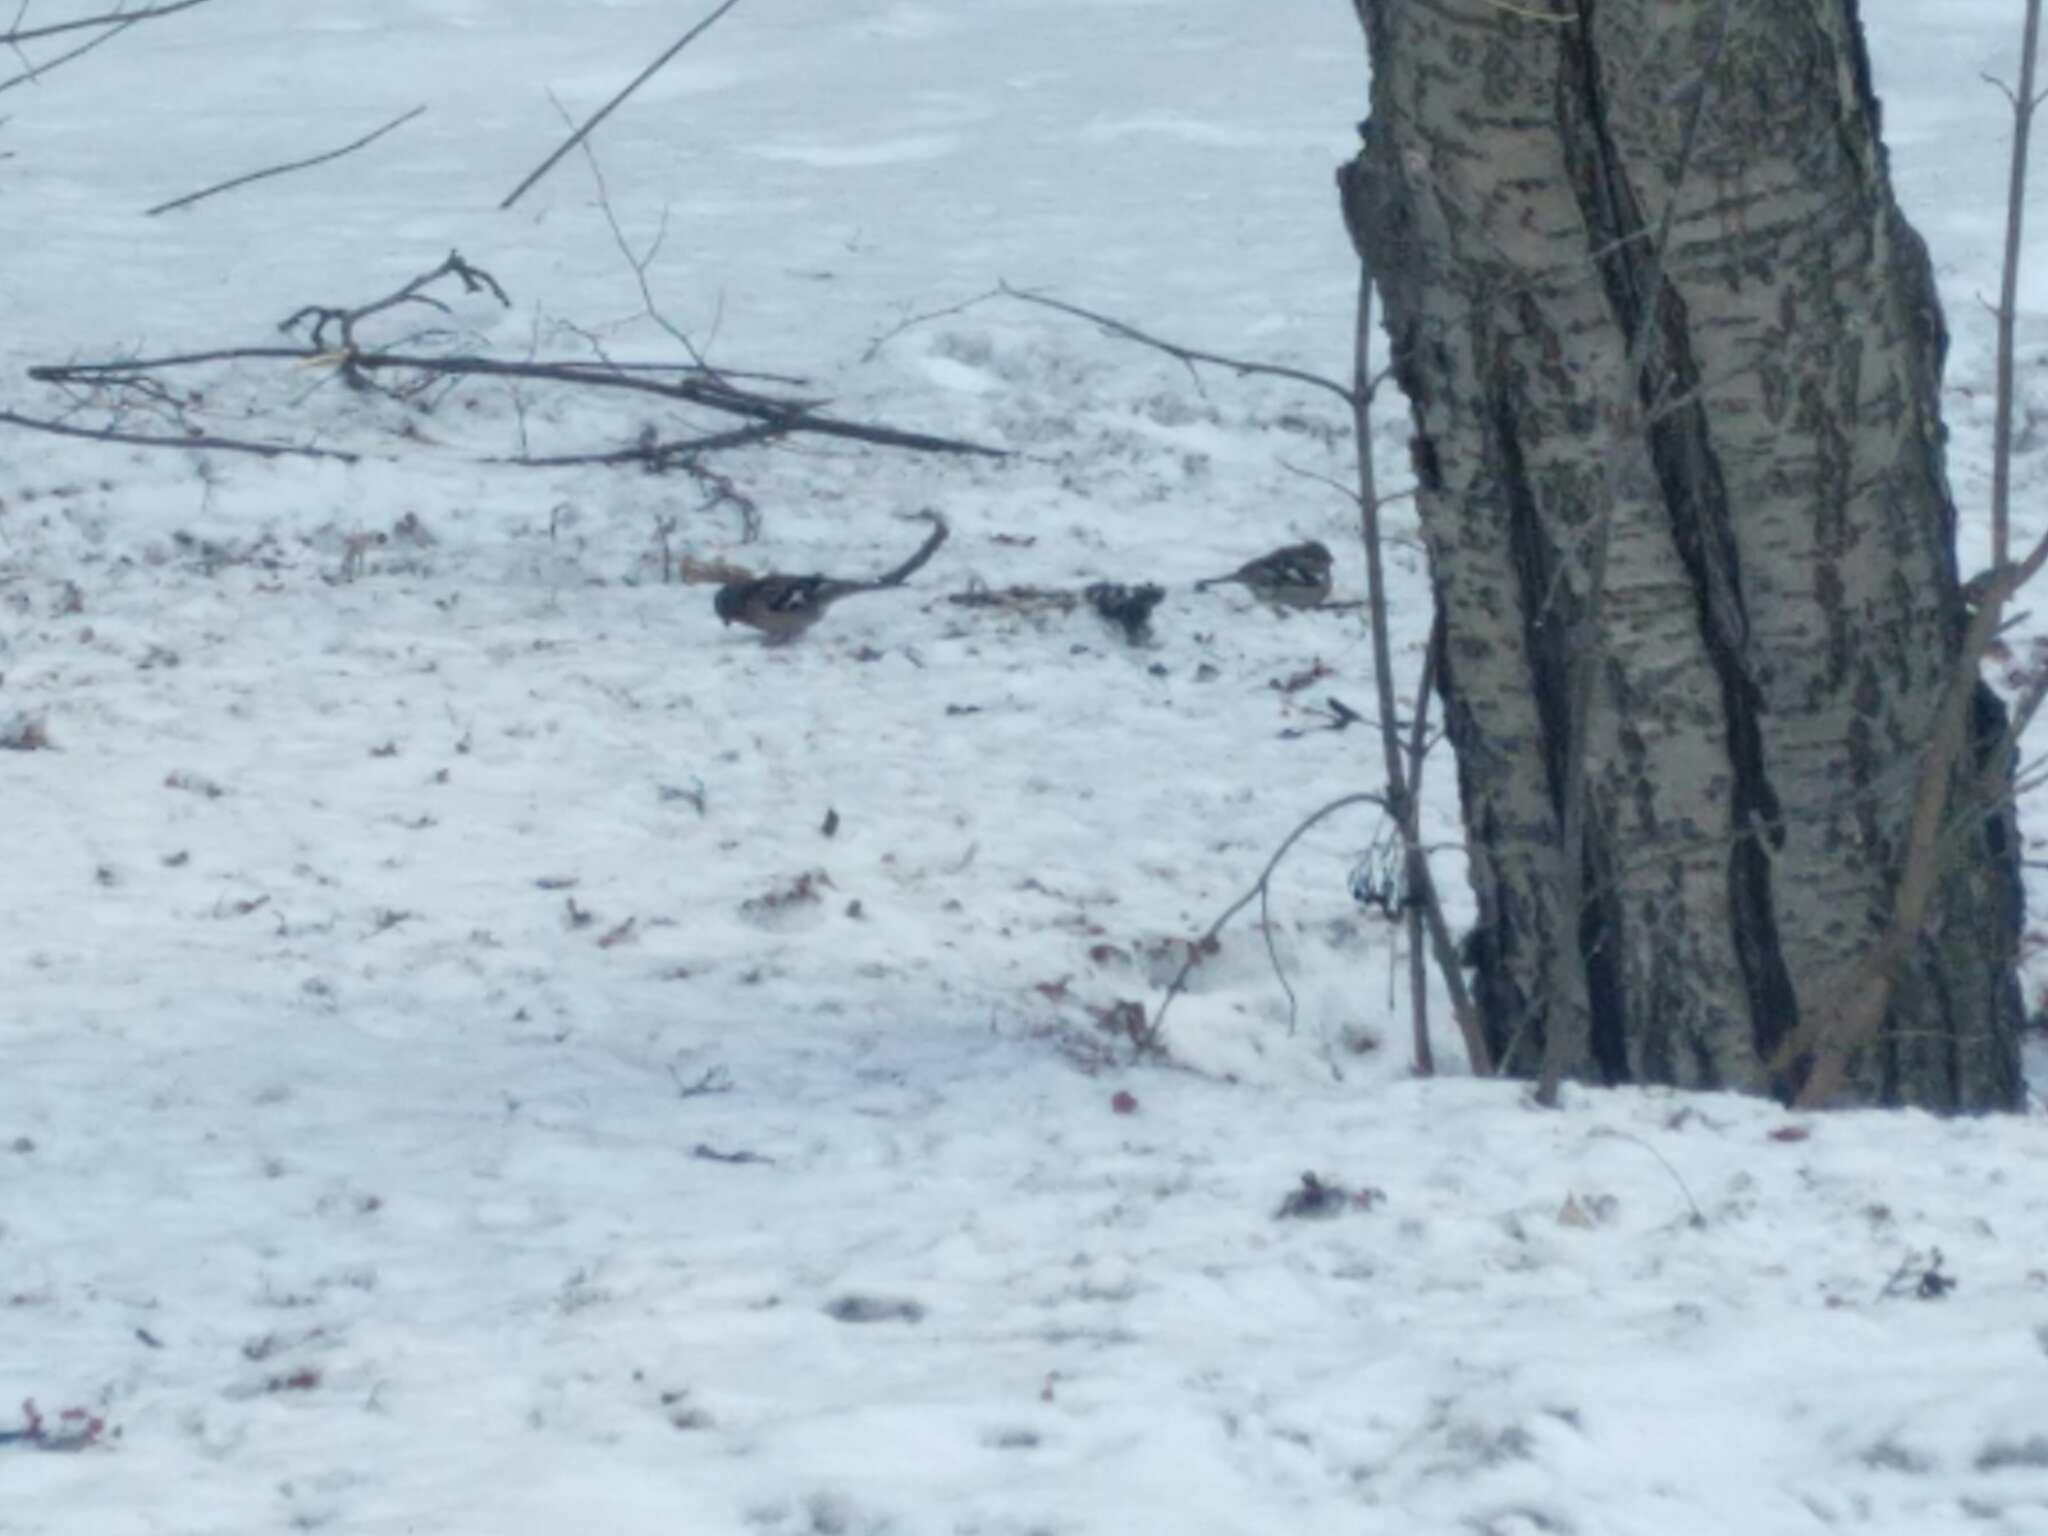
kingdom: Animalia
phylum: Chordata
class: Aves
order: Passeriformes
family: Fringillidae
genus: Fringilla
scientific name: Fringilla coelebs
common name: Common chaffinch
